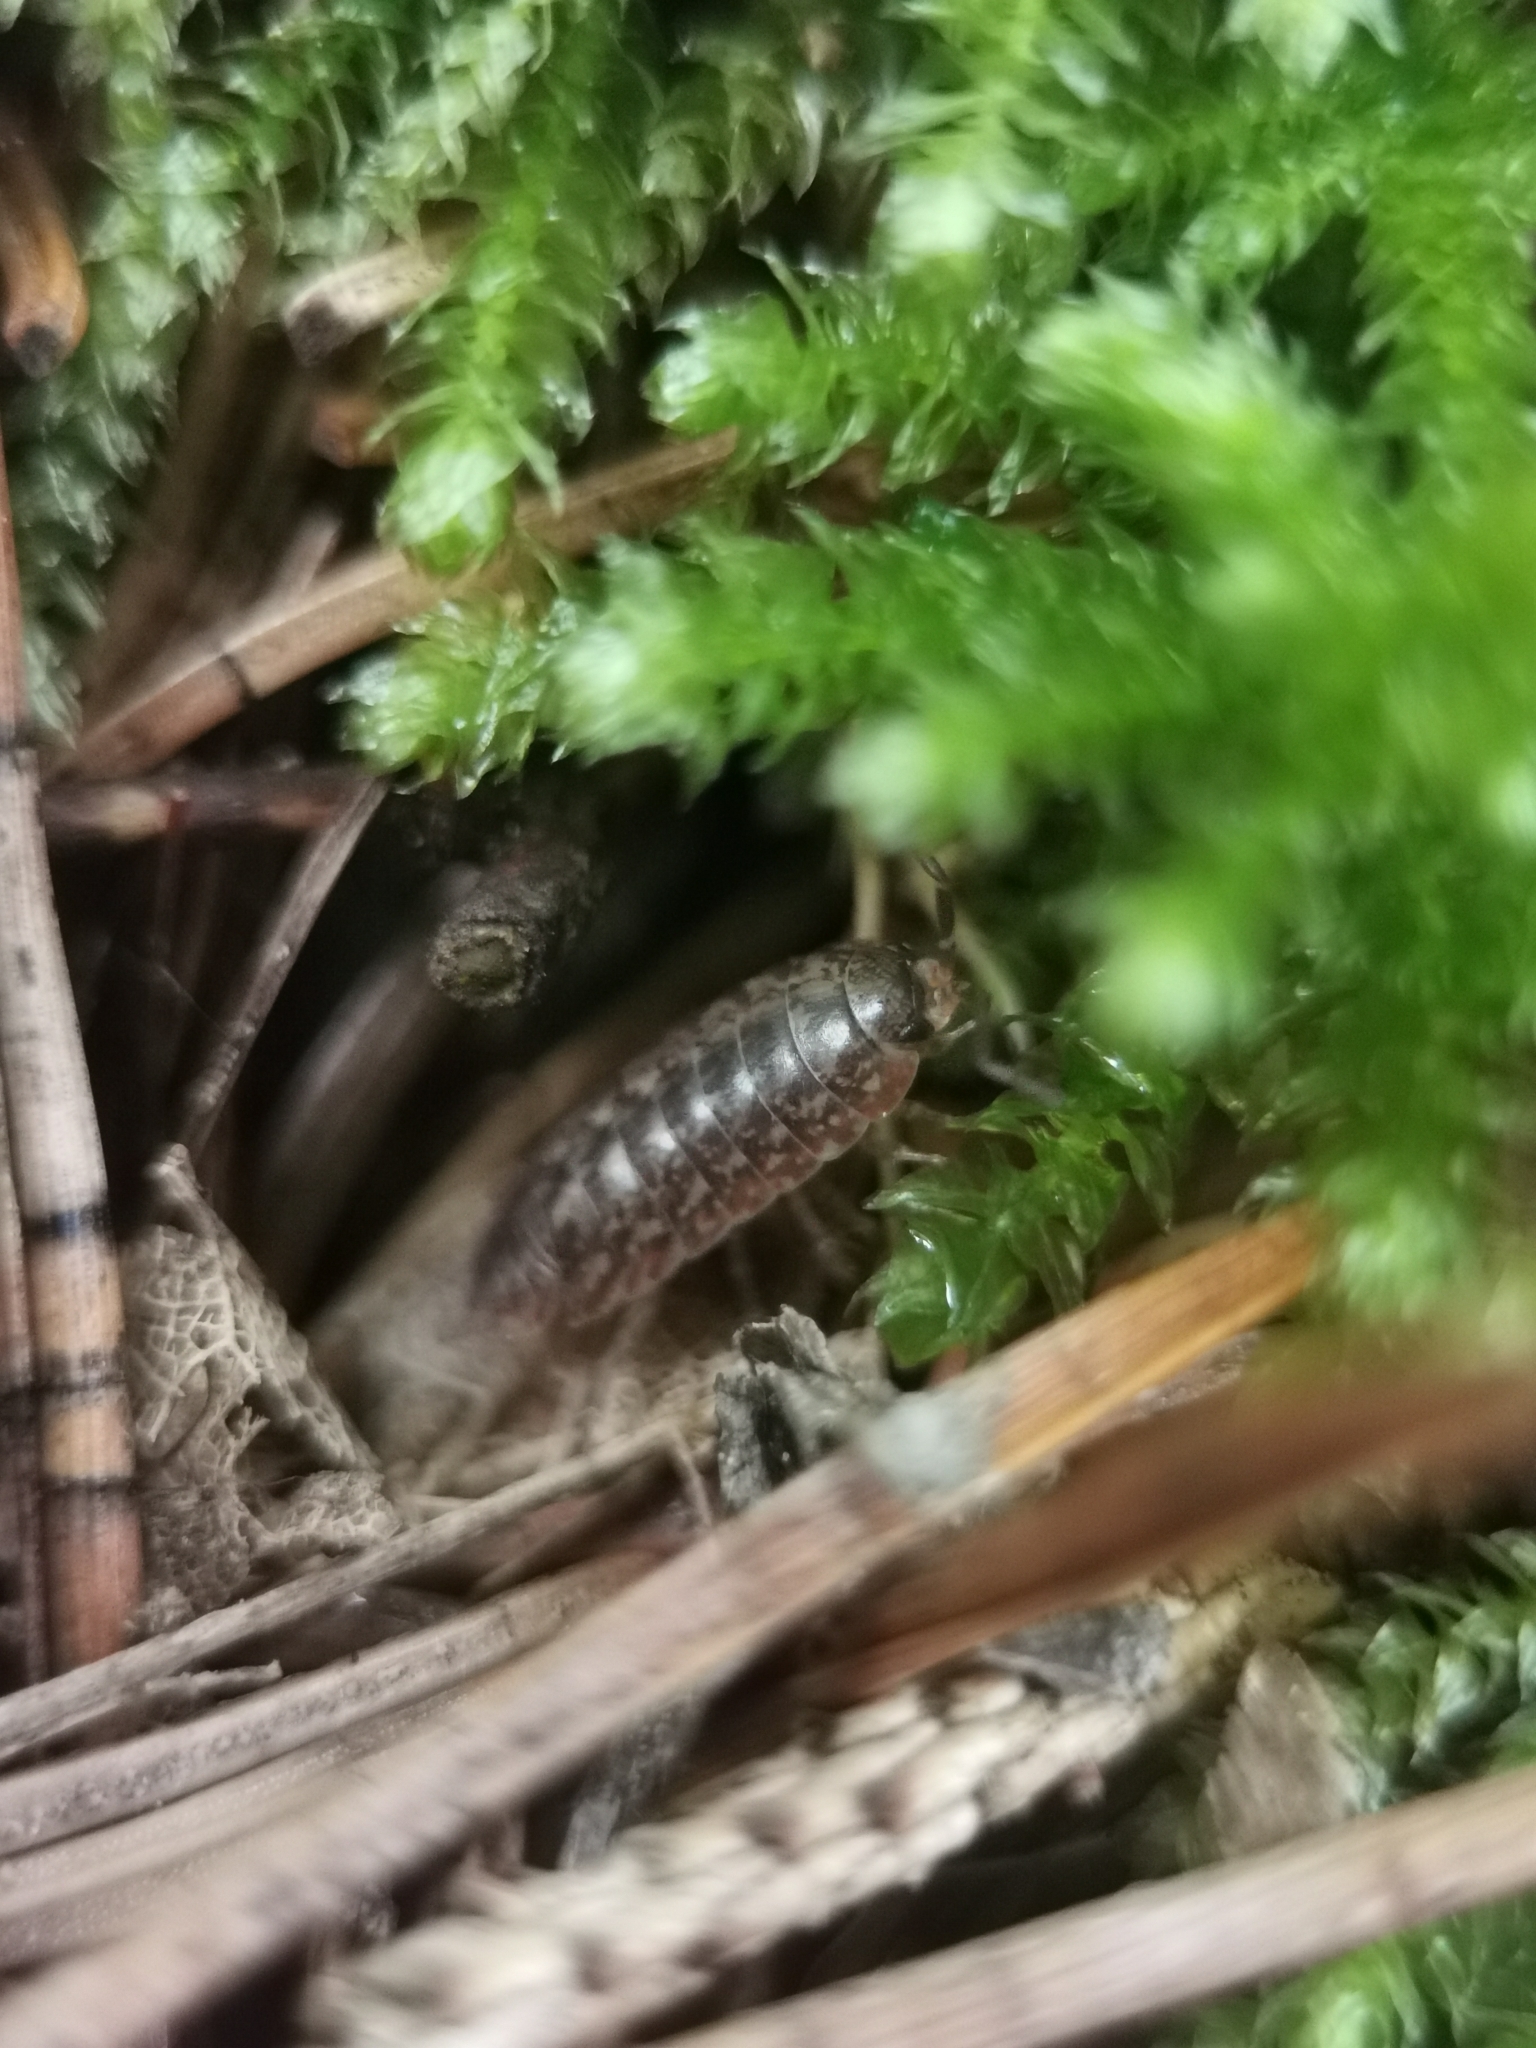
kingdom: Animalia
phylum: Arthropoda
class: Malacostraca
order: Isopoda
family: Agnaridae
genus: Protracheoniscus
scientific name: Protracheoniscus politus
